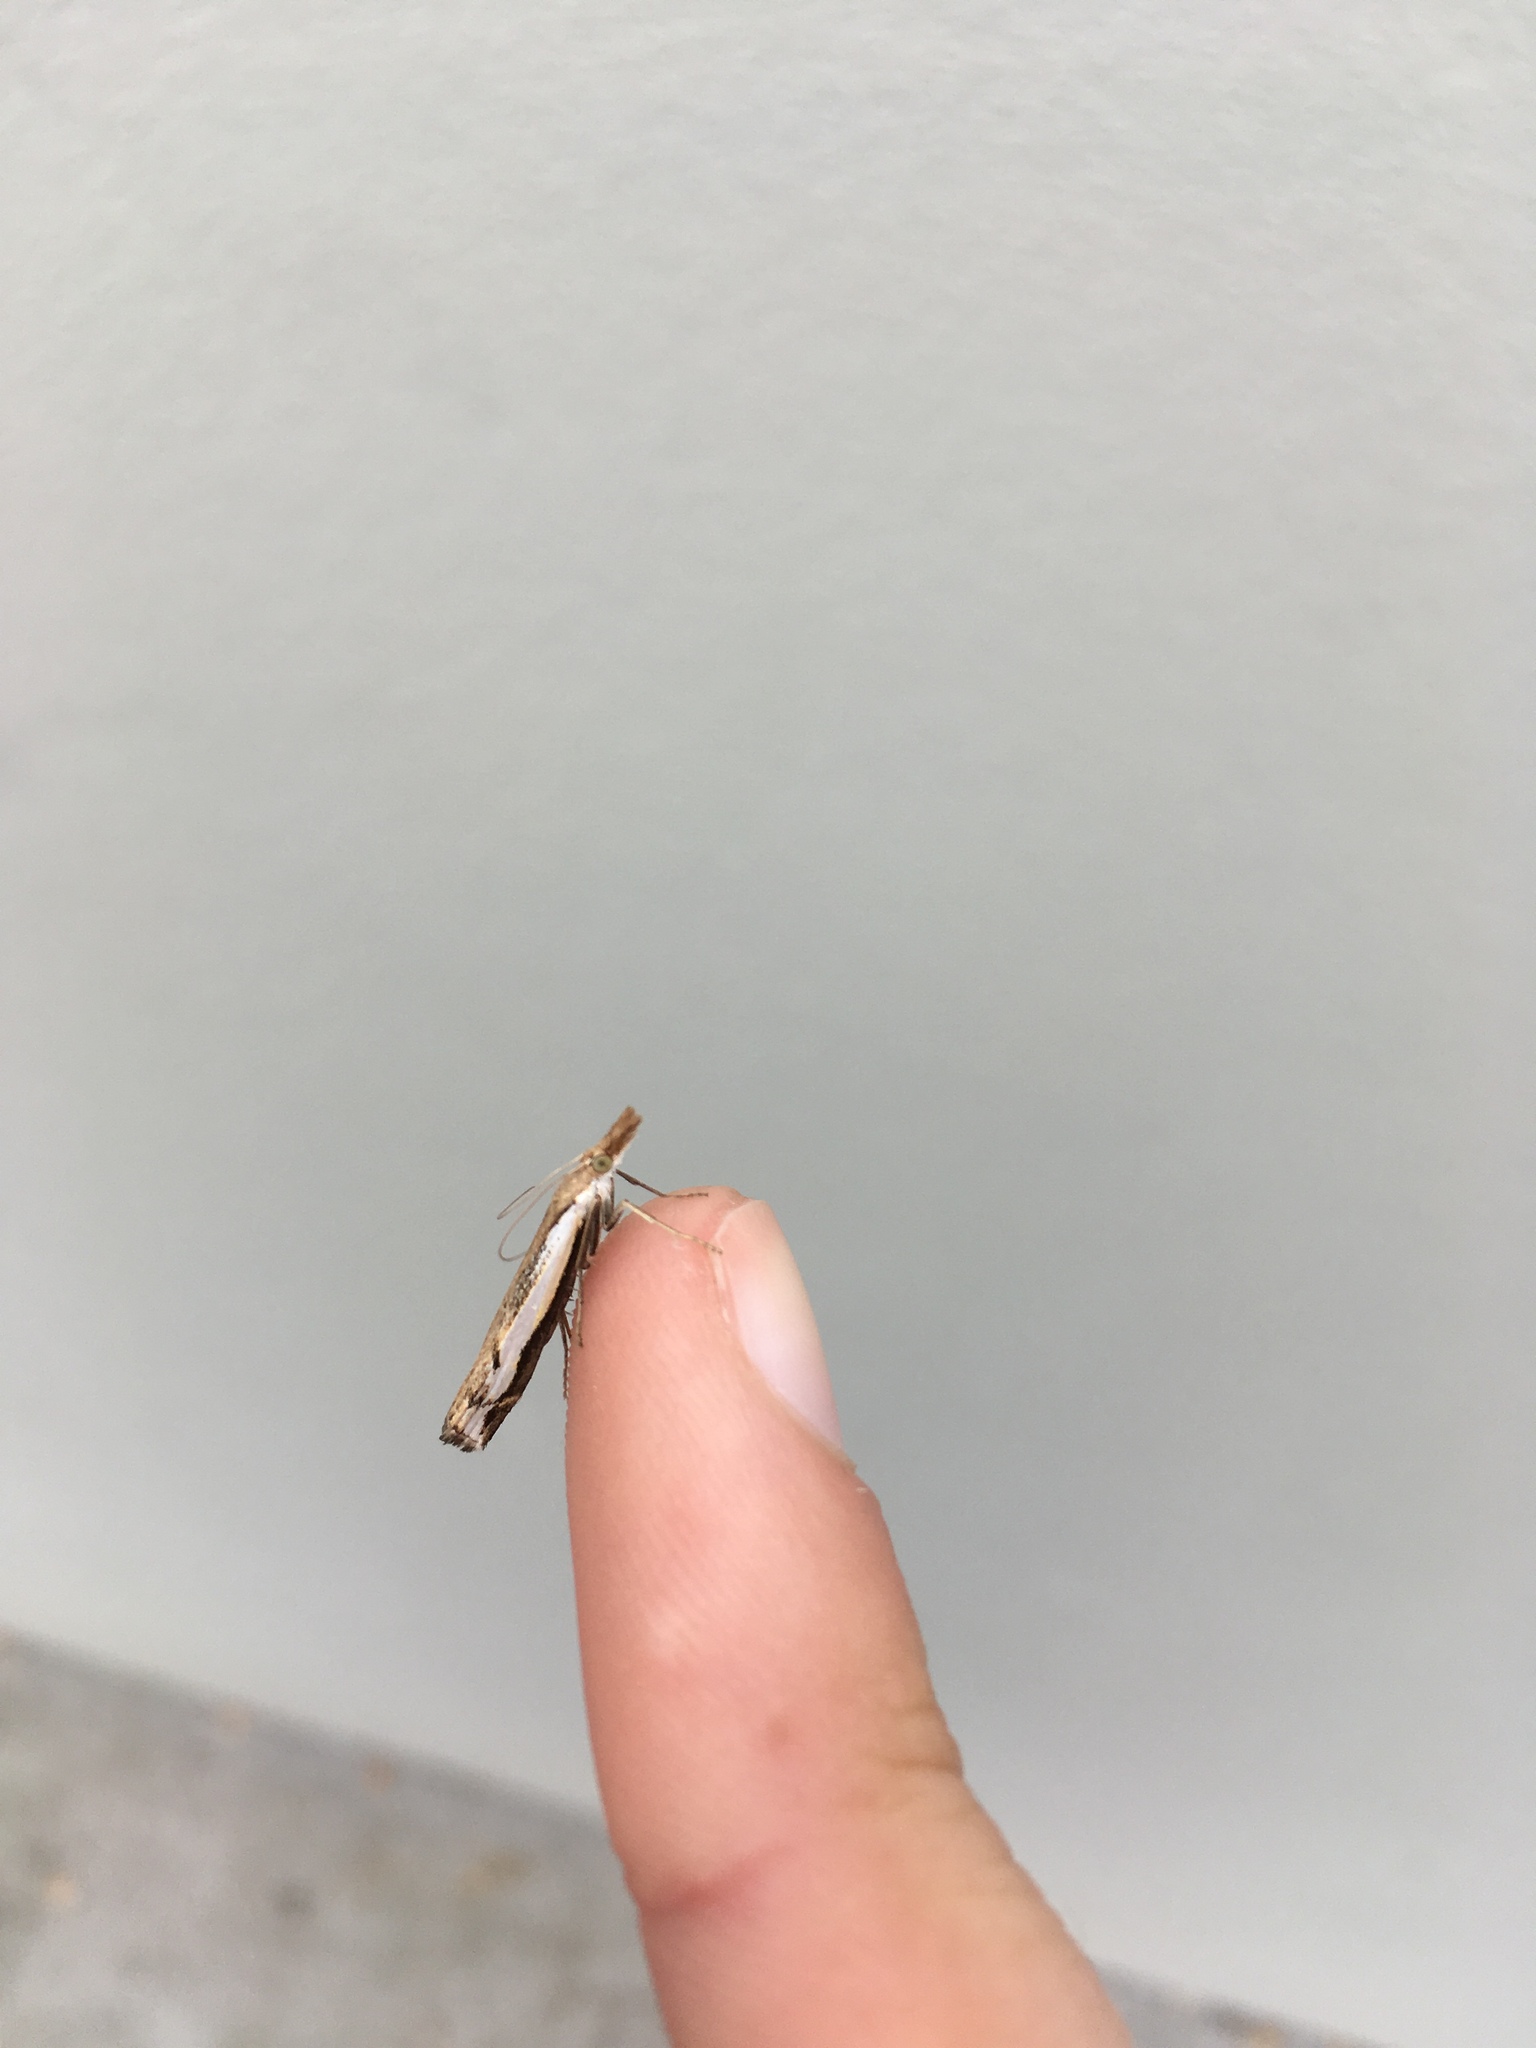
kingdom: Animalia
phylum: Arthropoda
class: Insecta
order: Lepidoptera
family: Crambidae
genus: Orocrambus
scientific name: Orocrambus flexuosellus
